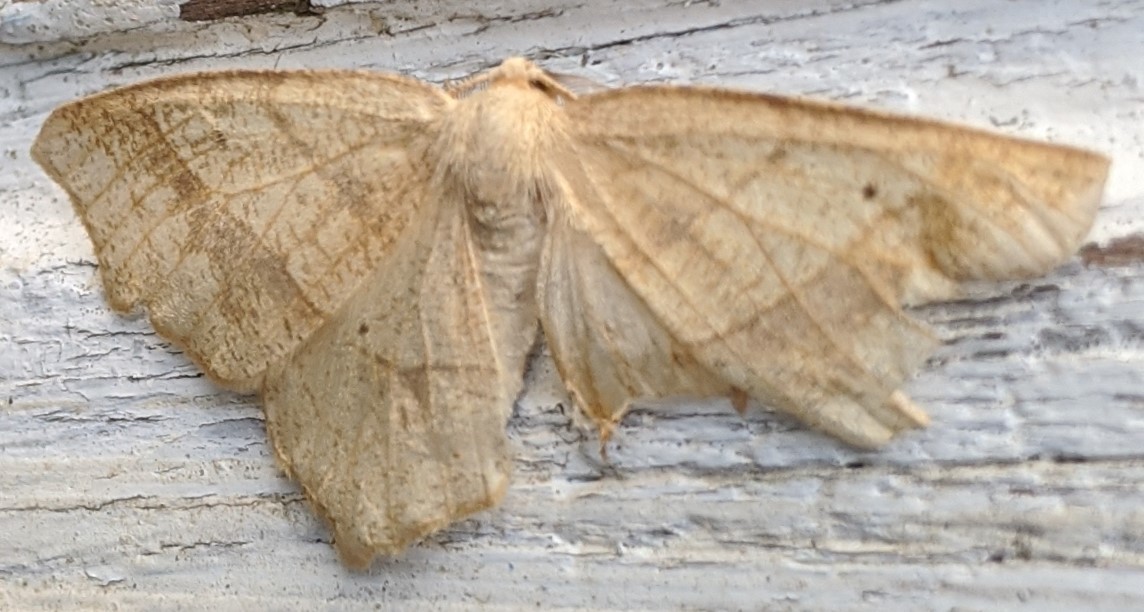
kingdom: Animalia
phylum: Arthropoda
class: Insecta
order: Lepidoptera
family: Geometridae
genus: Besma
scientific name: Besma quercivoraria
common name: Oak besma
